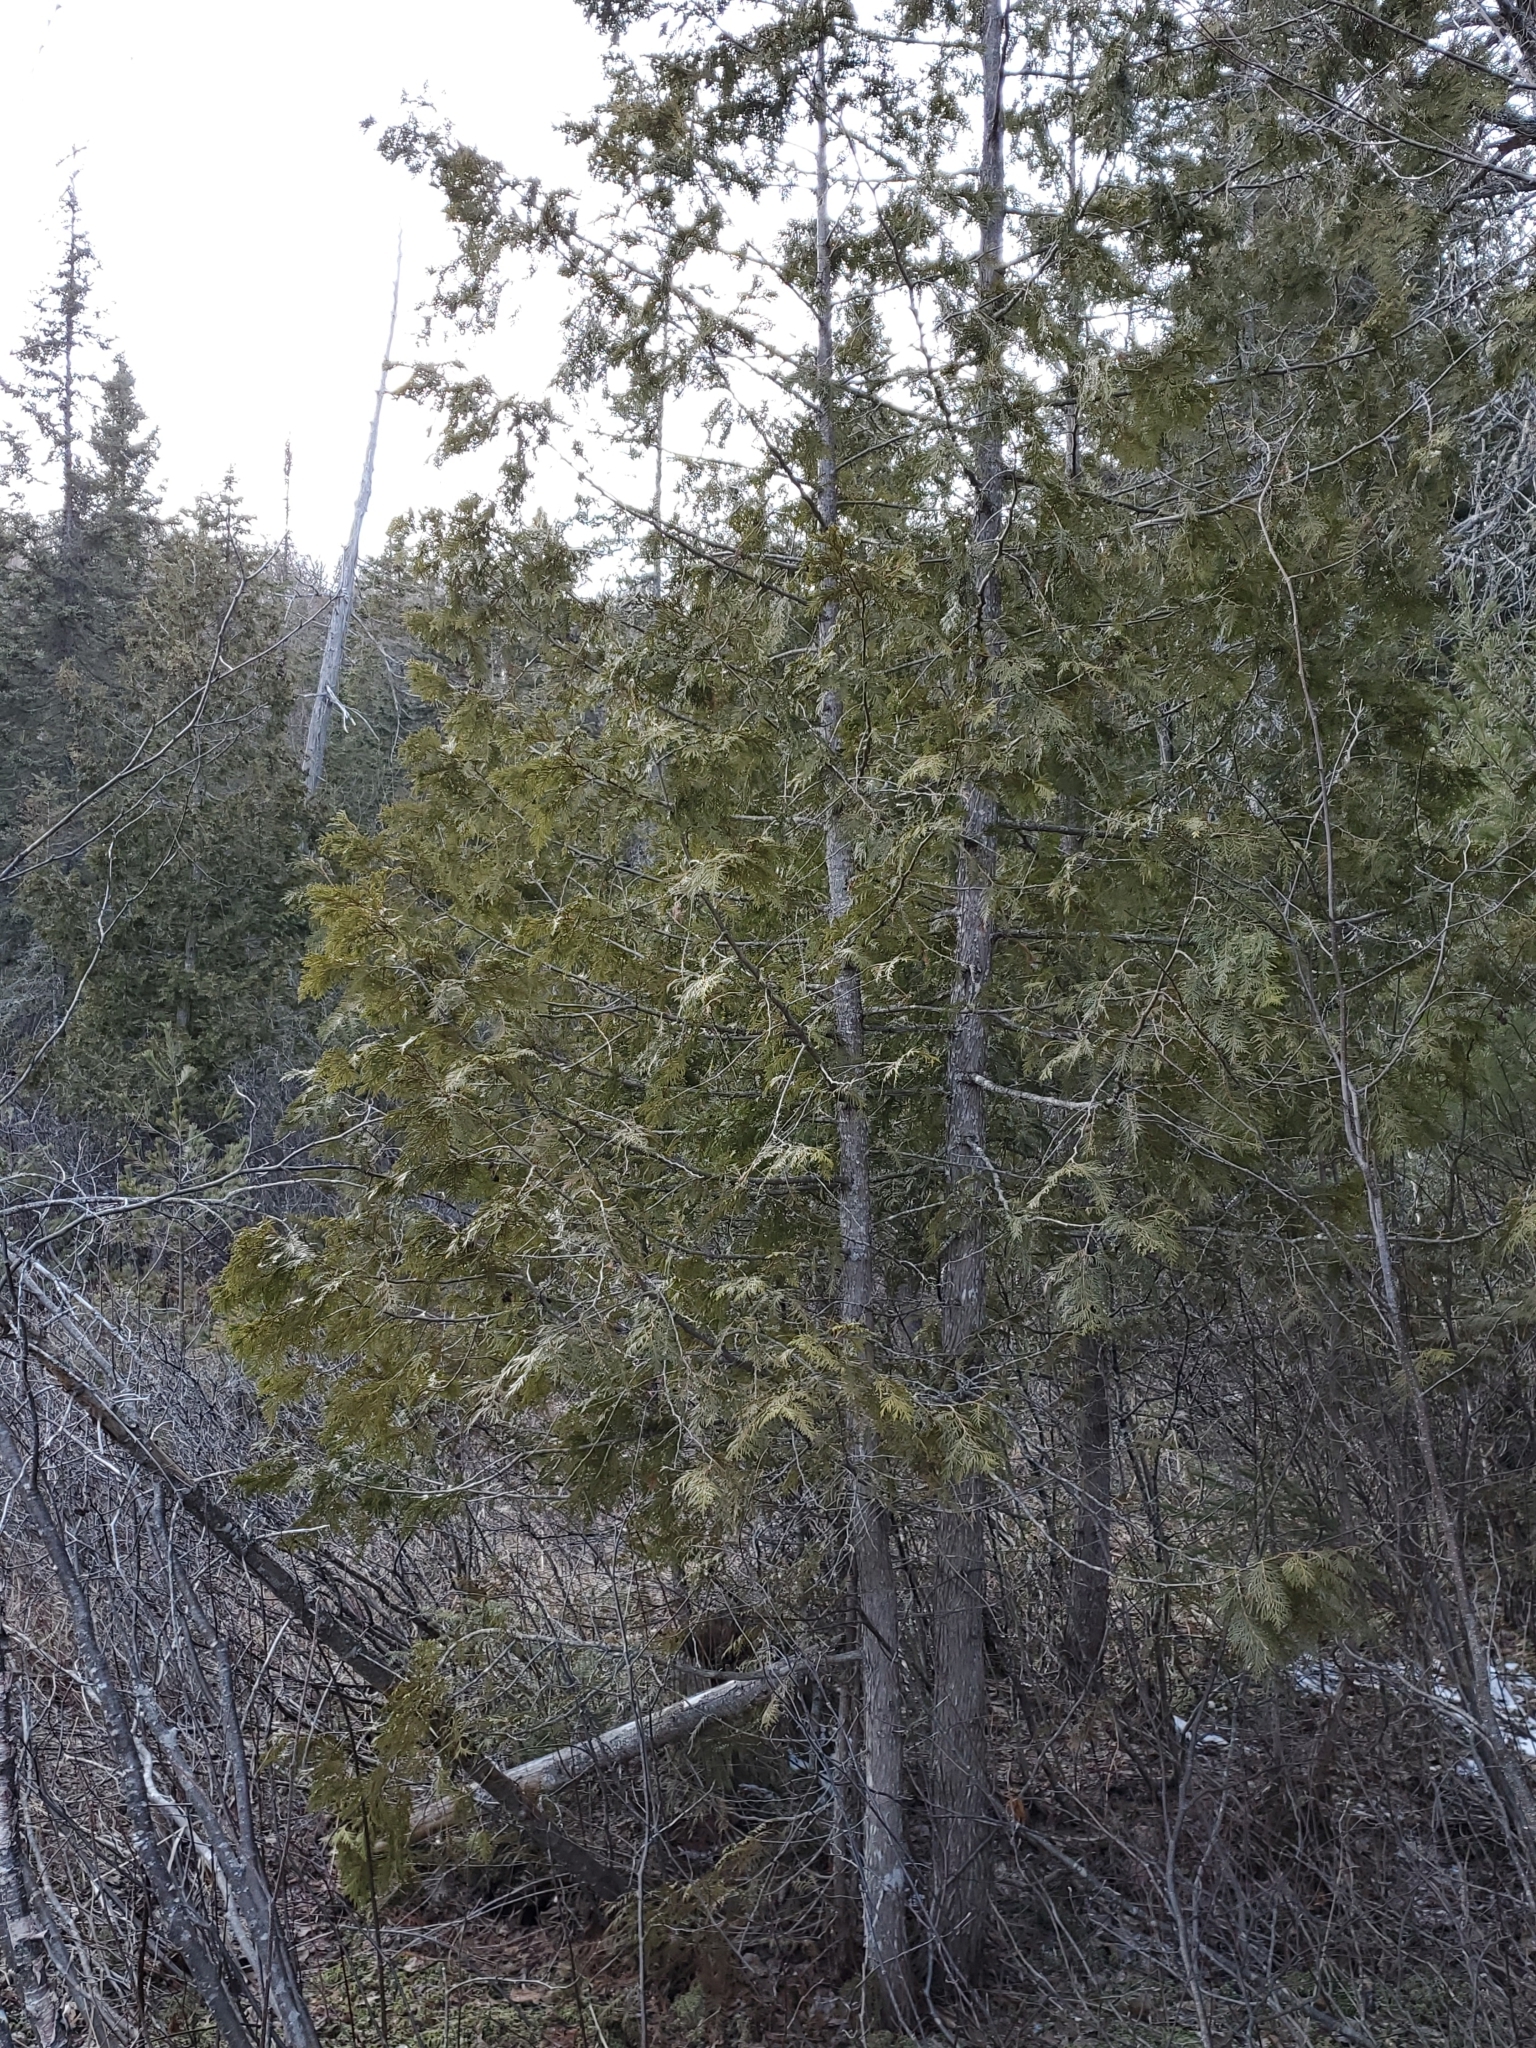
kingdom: Plantae
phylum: Tracheophyta
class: Pinopsida
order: Pinales
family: Cupressaceae
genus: Thuja
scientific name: Thuja occidentalis
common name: Northern white-cedar
